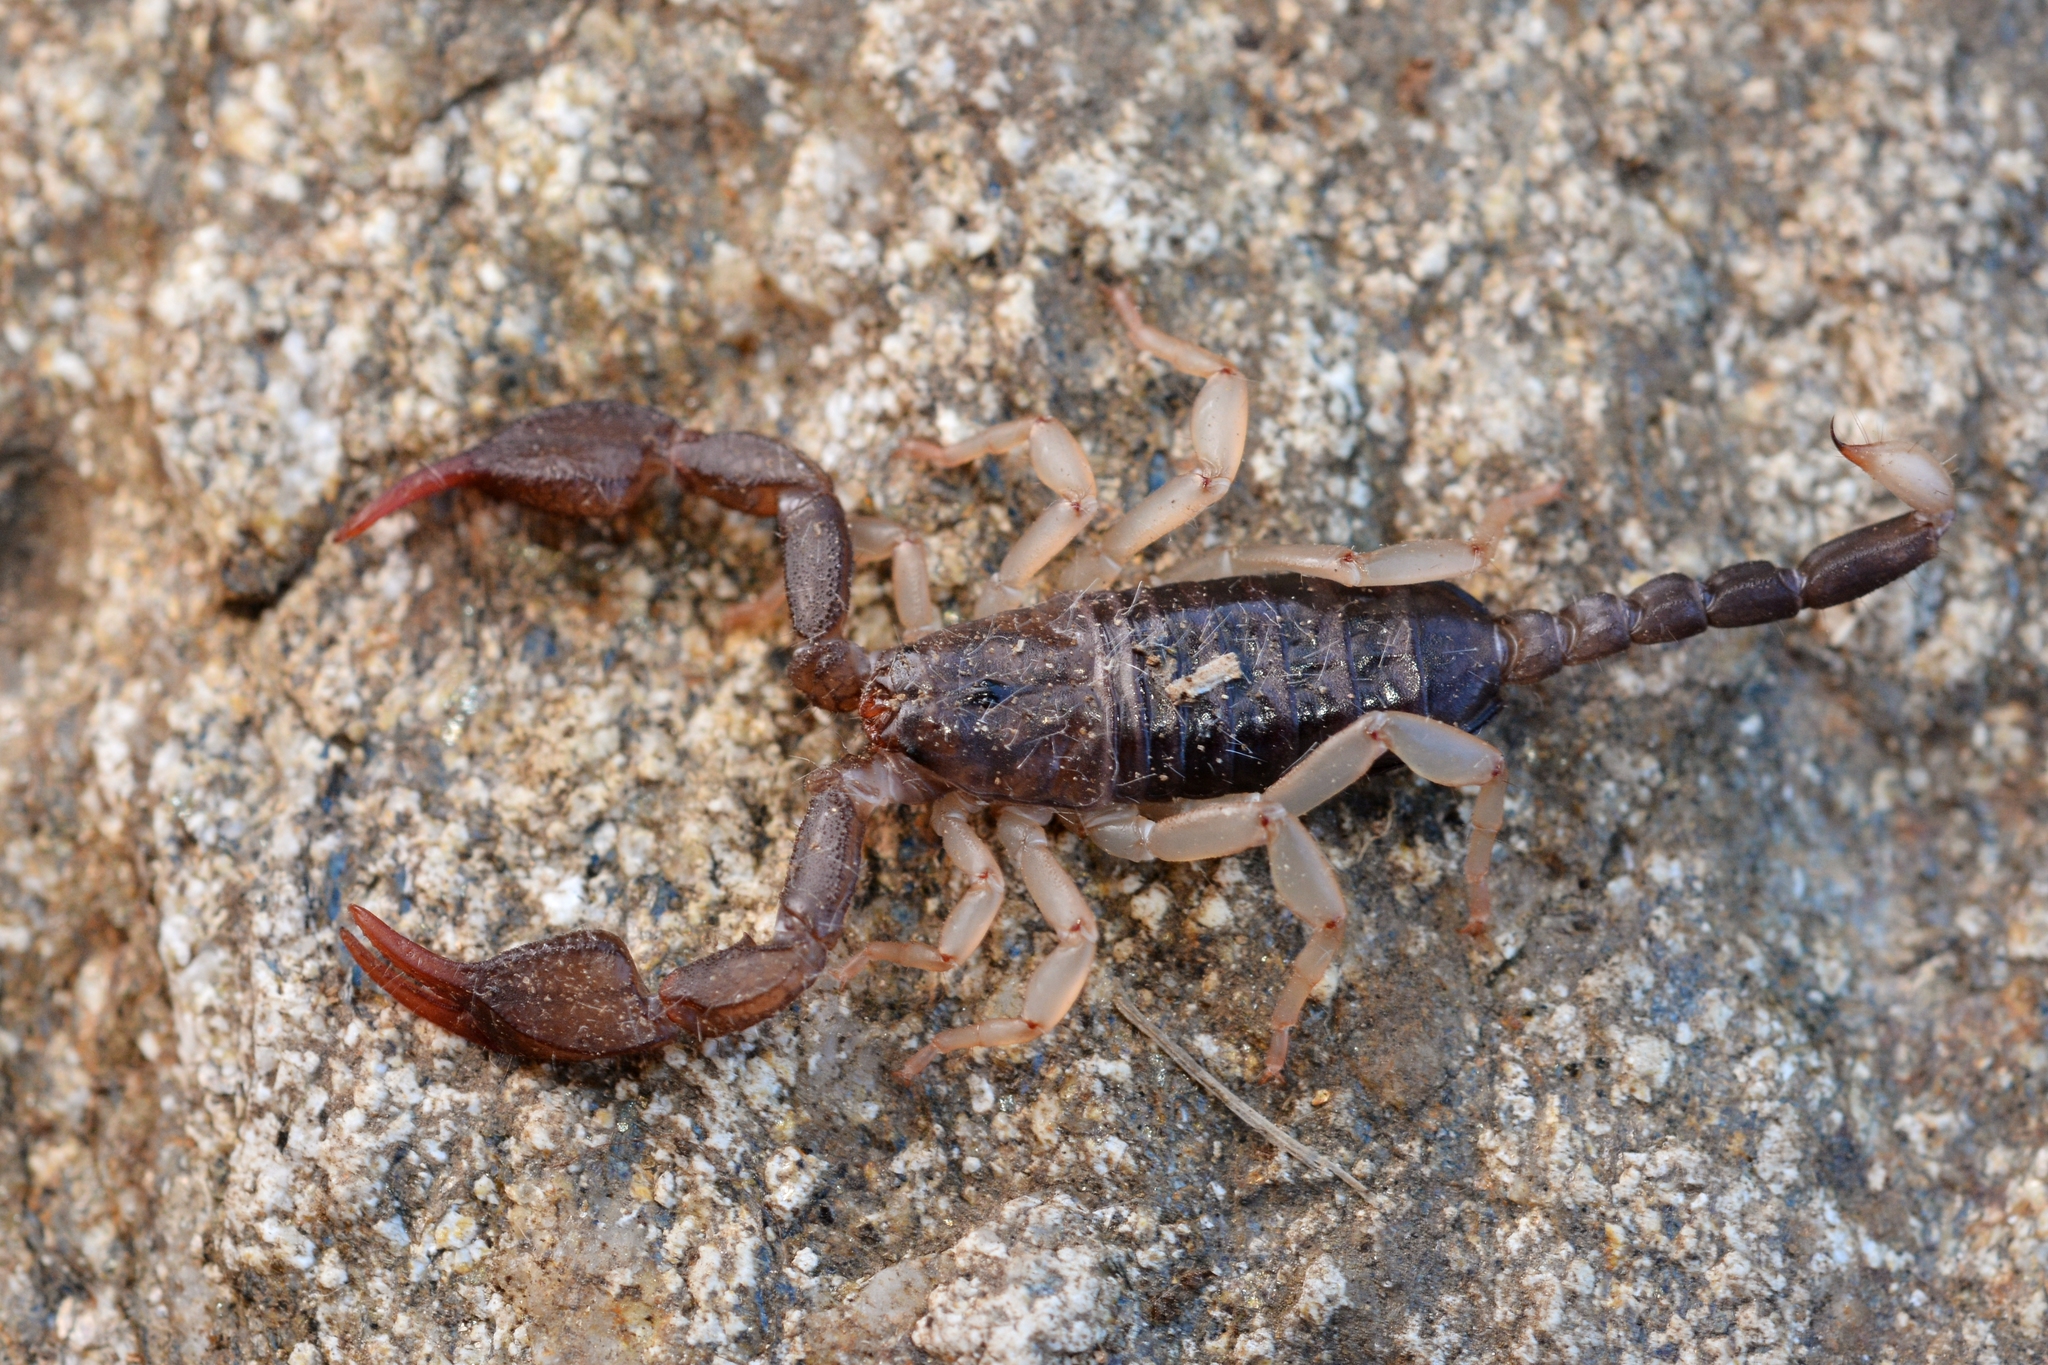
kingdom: Animalia
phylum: Arthropoda
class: Arachnida
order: Scorpiones
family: Euscorpiidae
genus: Euscorpius
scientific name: Euscorpius
